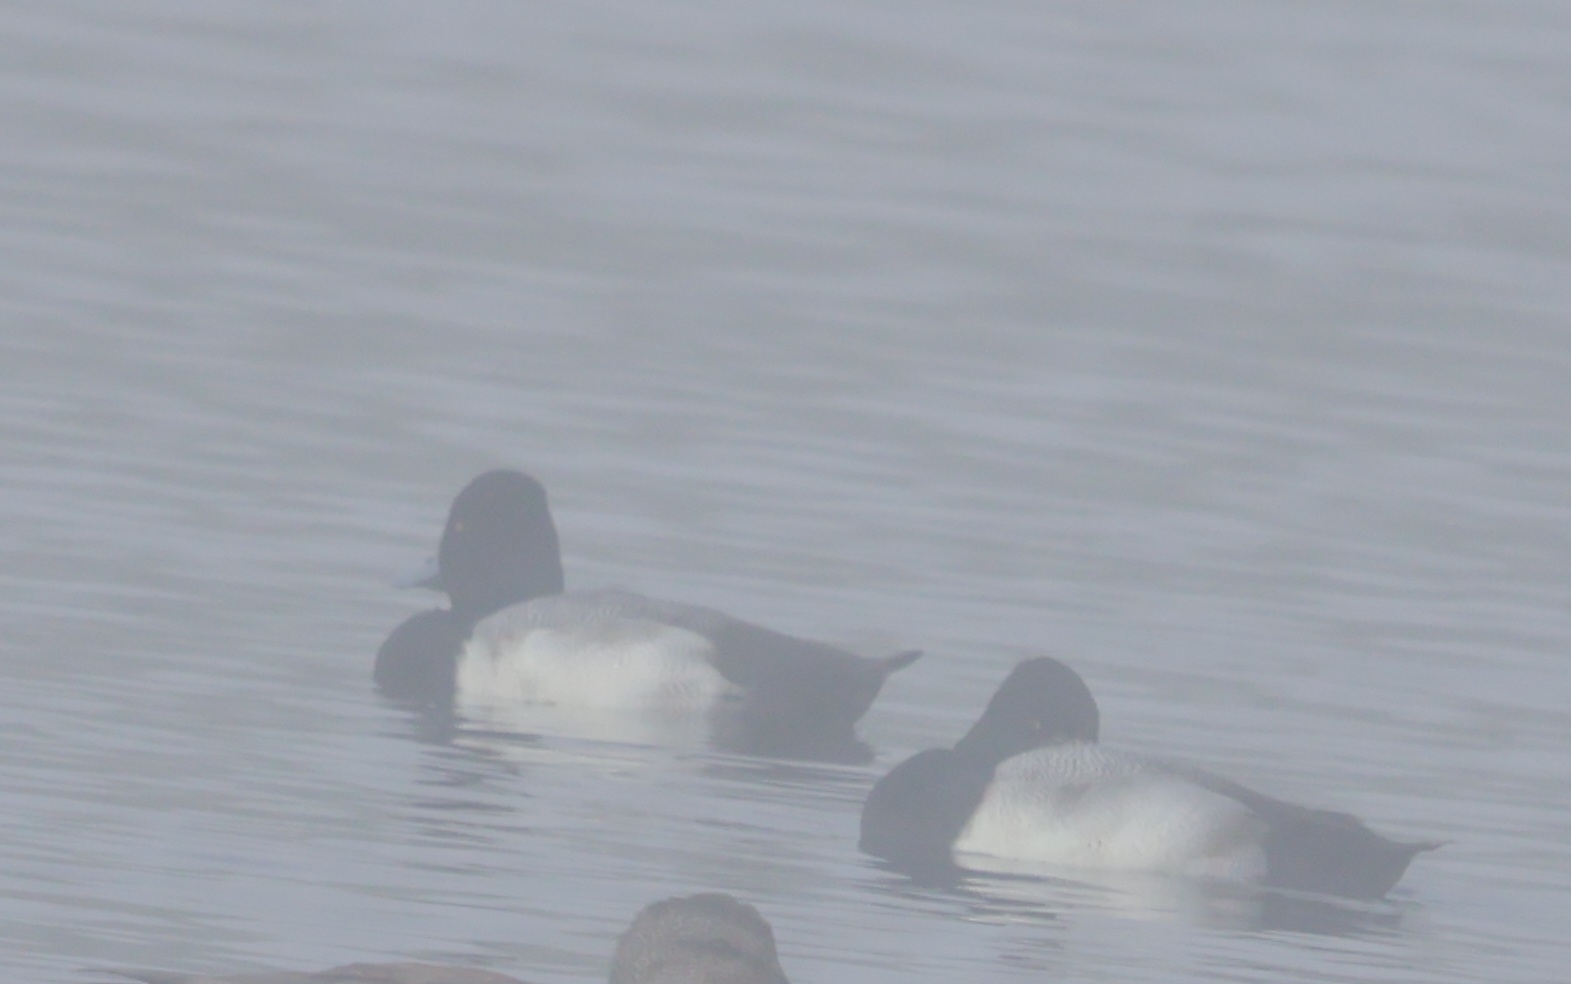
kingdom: Animalia
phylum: Chordata
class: Aves
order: Anseriformes
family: Anatidae
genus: Aythya
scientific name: Aythya affinis
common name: Lesser scaup
